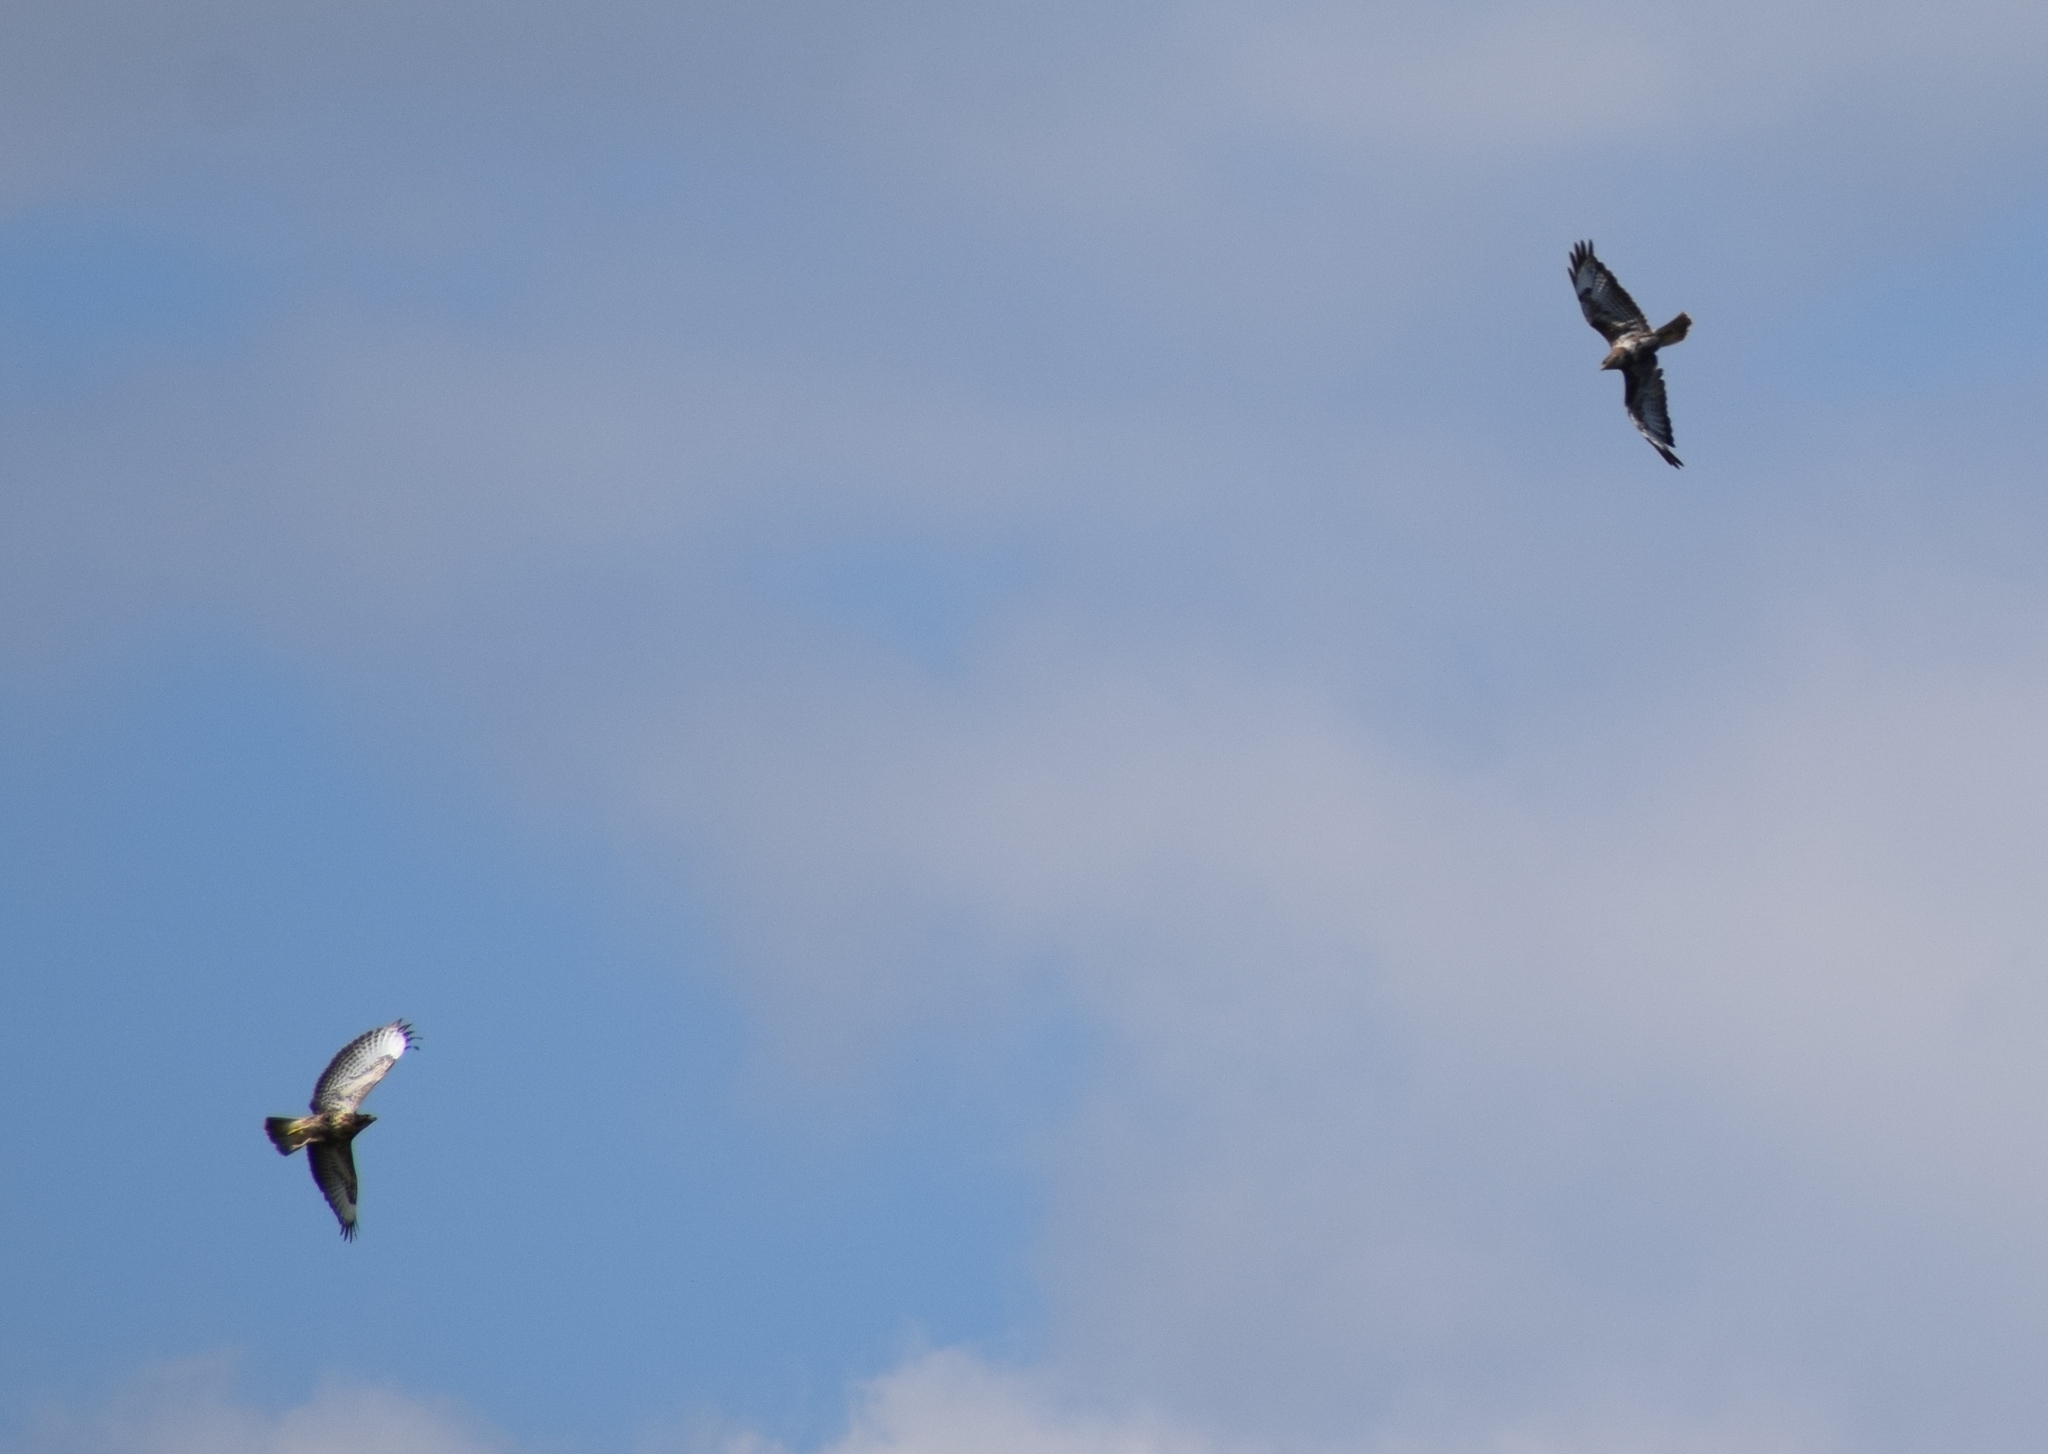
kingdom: Animalia
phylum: Chordata
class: Aves
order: Accipitriformes
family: Accipitridae
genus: Buteo
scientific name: Buteo buteo
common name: Common buzzard
